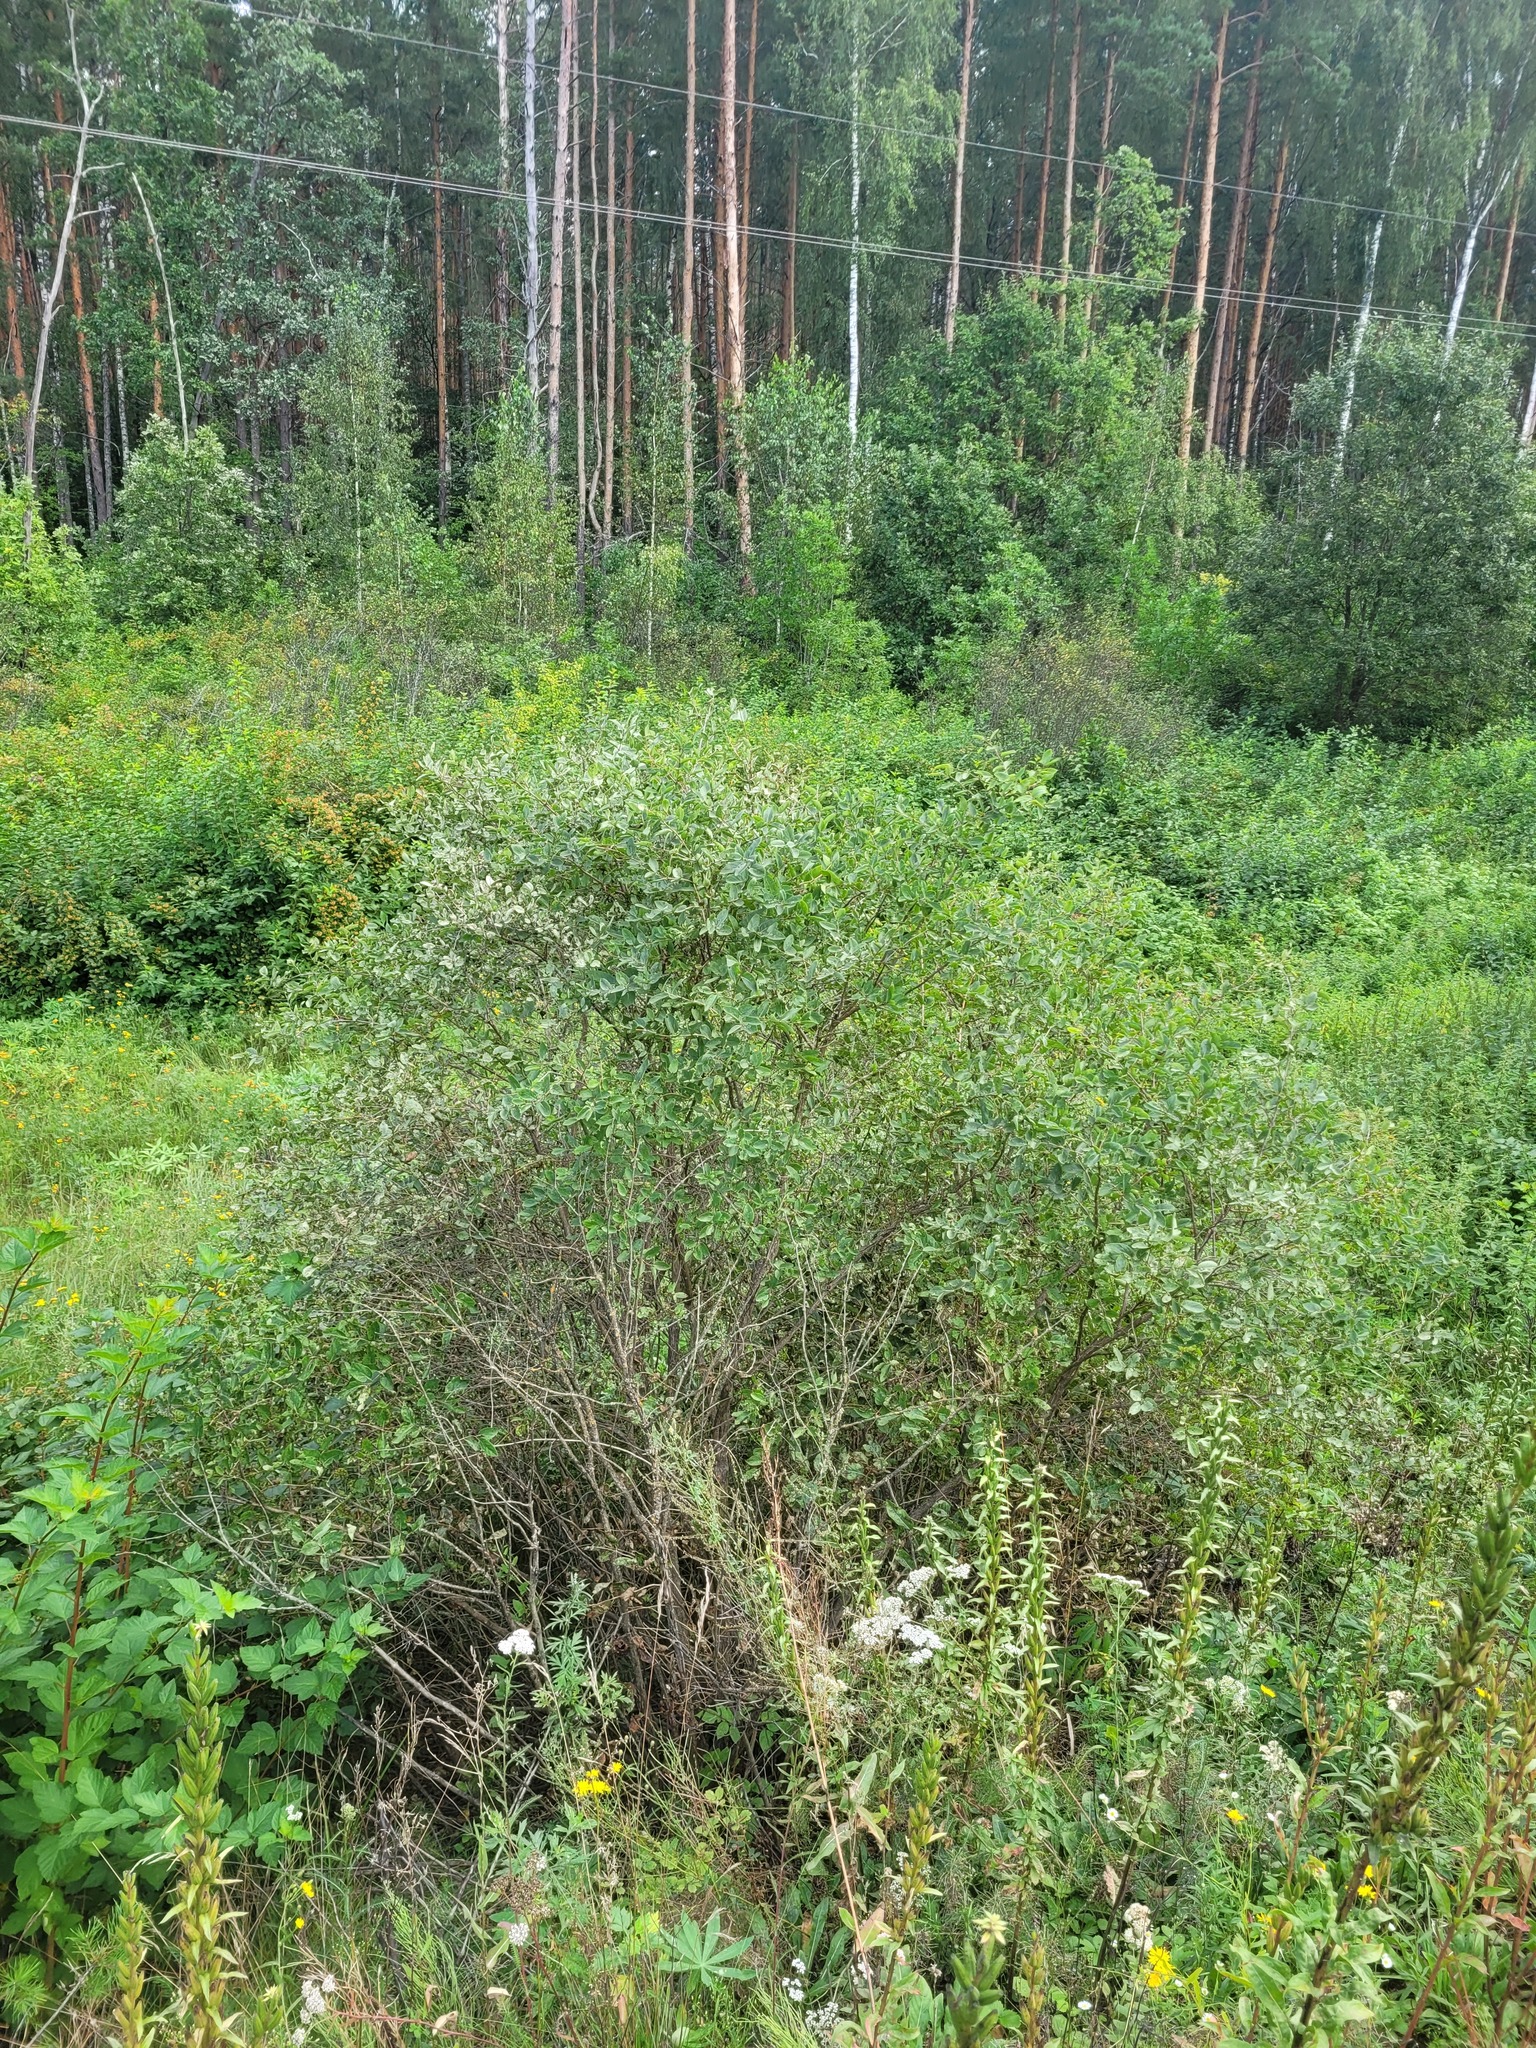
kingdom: Plantae
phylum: Tracheophyta
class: Magnoliopsida
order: Dipsacales
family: Caprifoliaceae
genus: Lonicera
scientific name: Lonicera tatarica
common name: Tatarian honeysuckle
